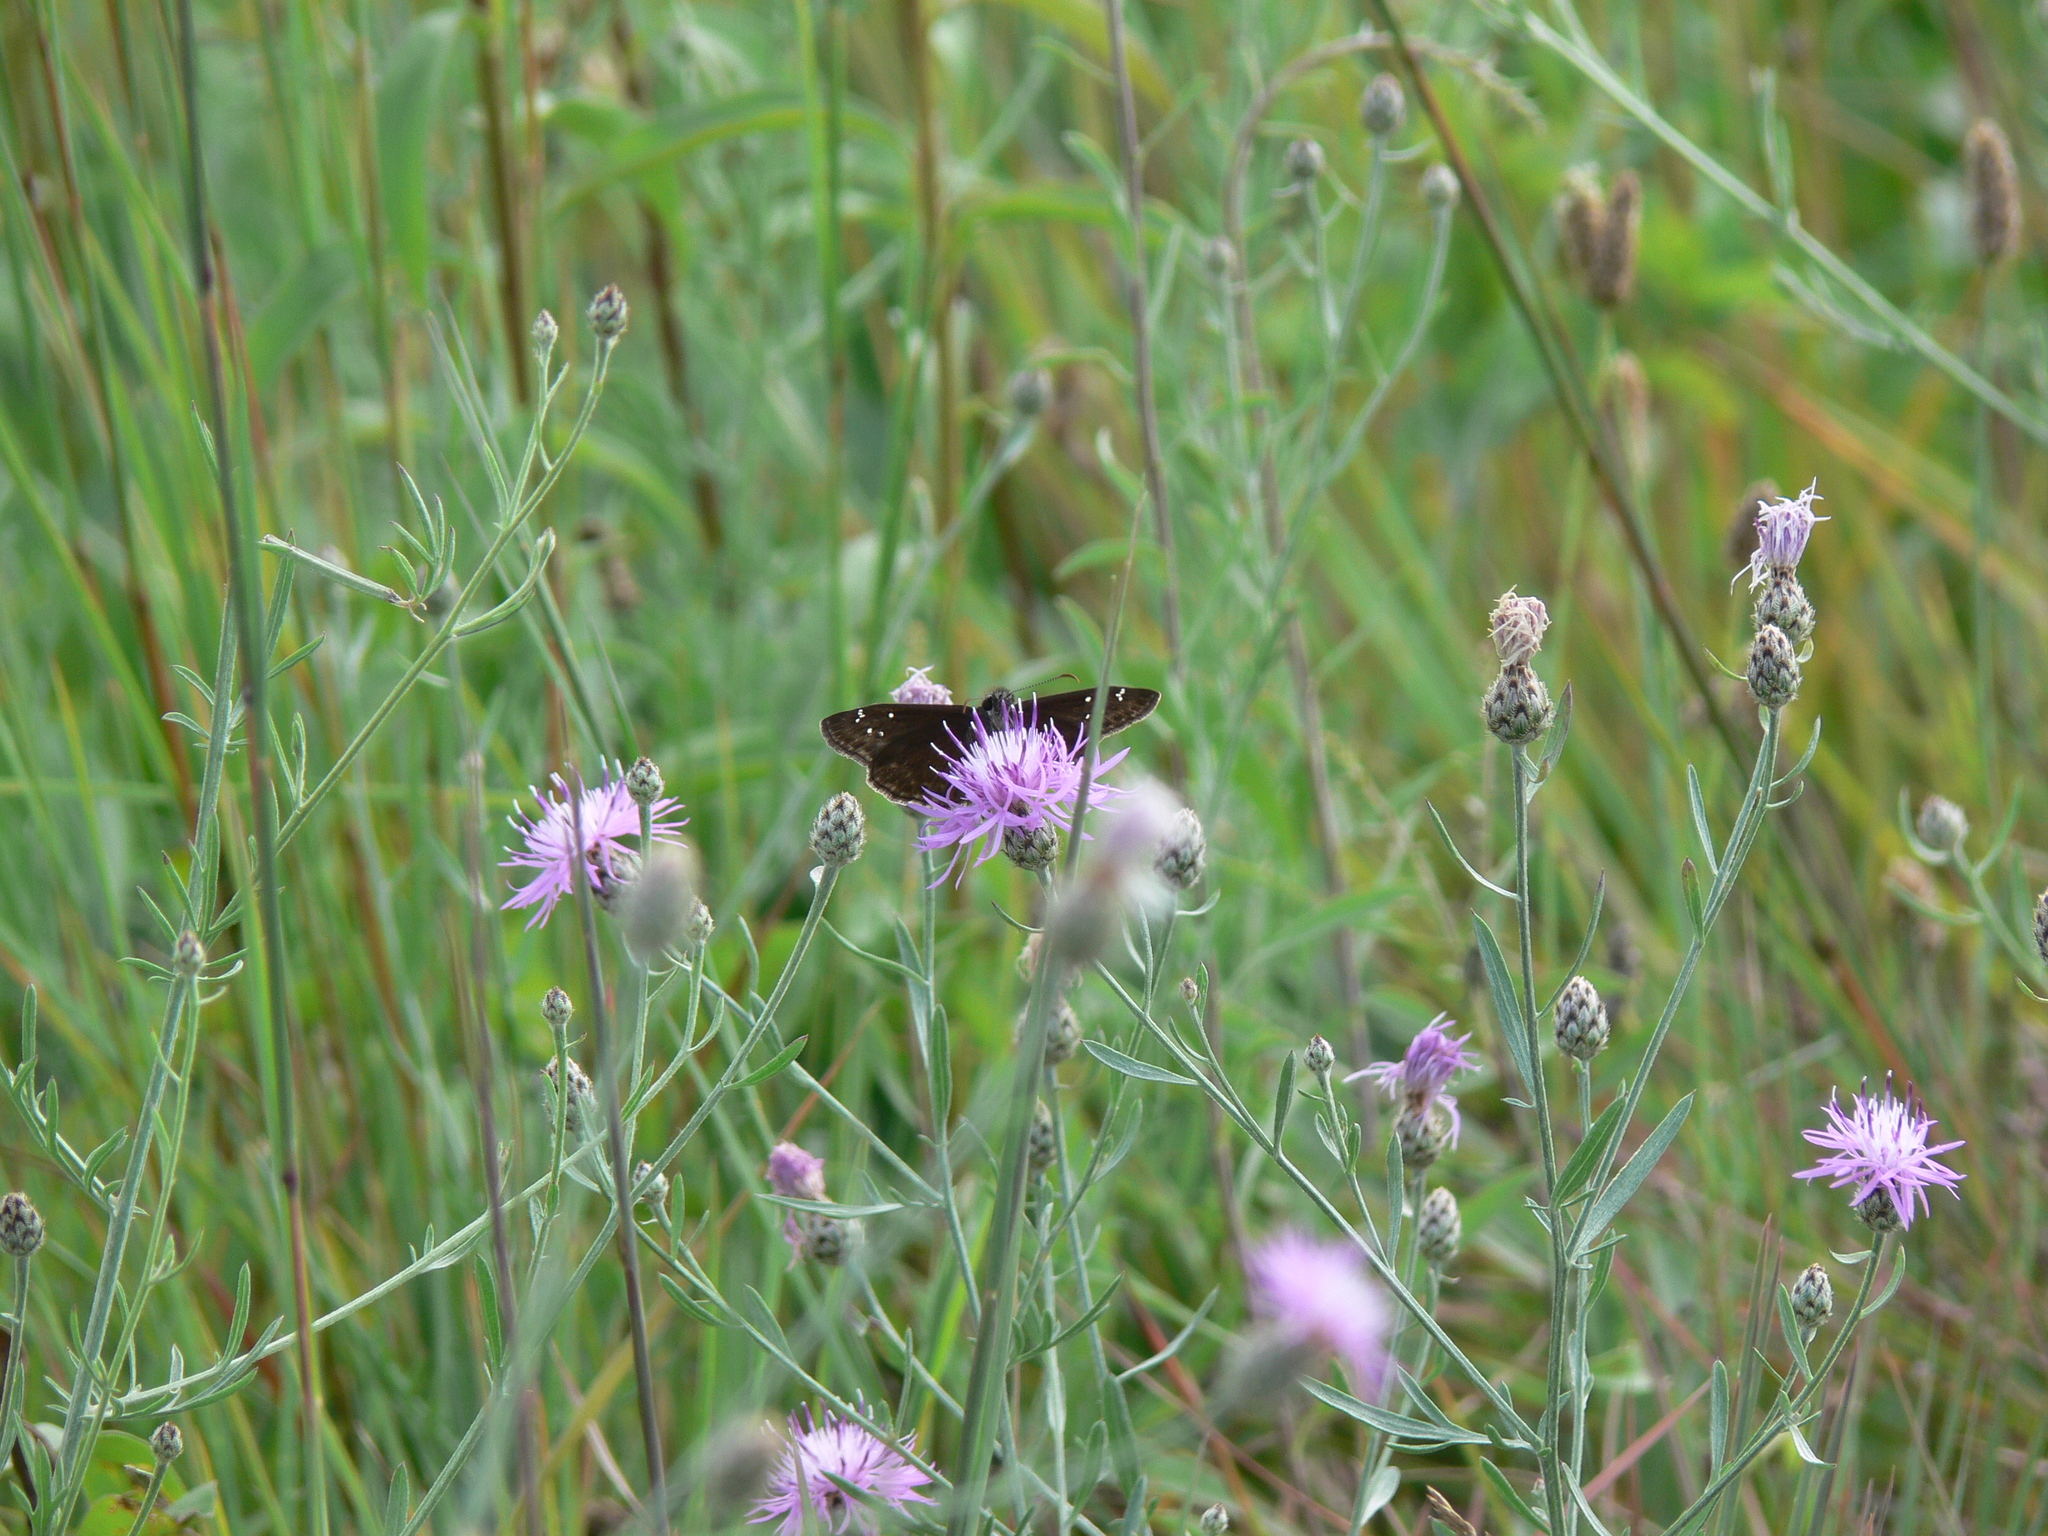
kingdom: Animalia
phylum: Arthropoda
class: Insecta
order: Lepidoptera
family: Hesperiidae
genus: Erynnis
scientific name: Erynnis horatius
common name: Horace's duskywing
